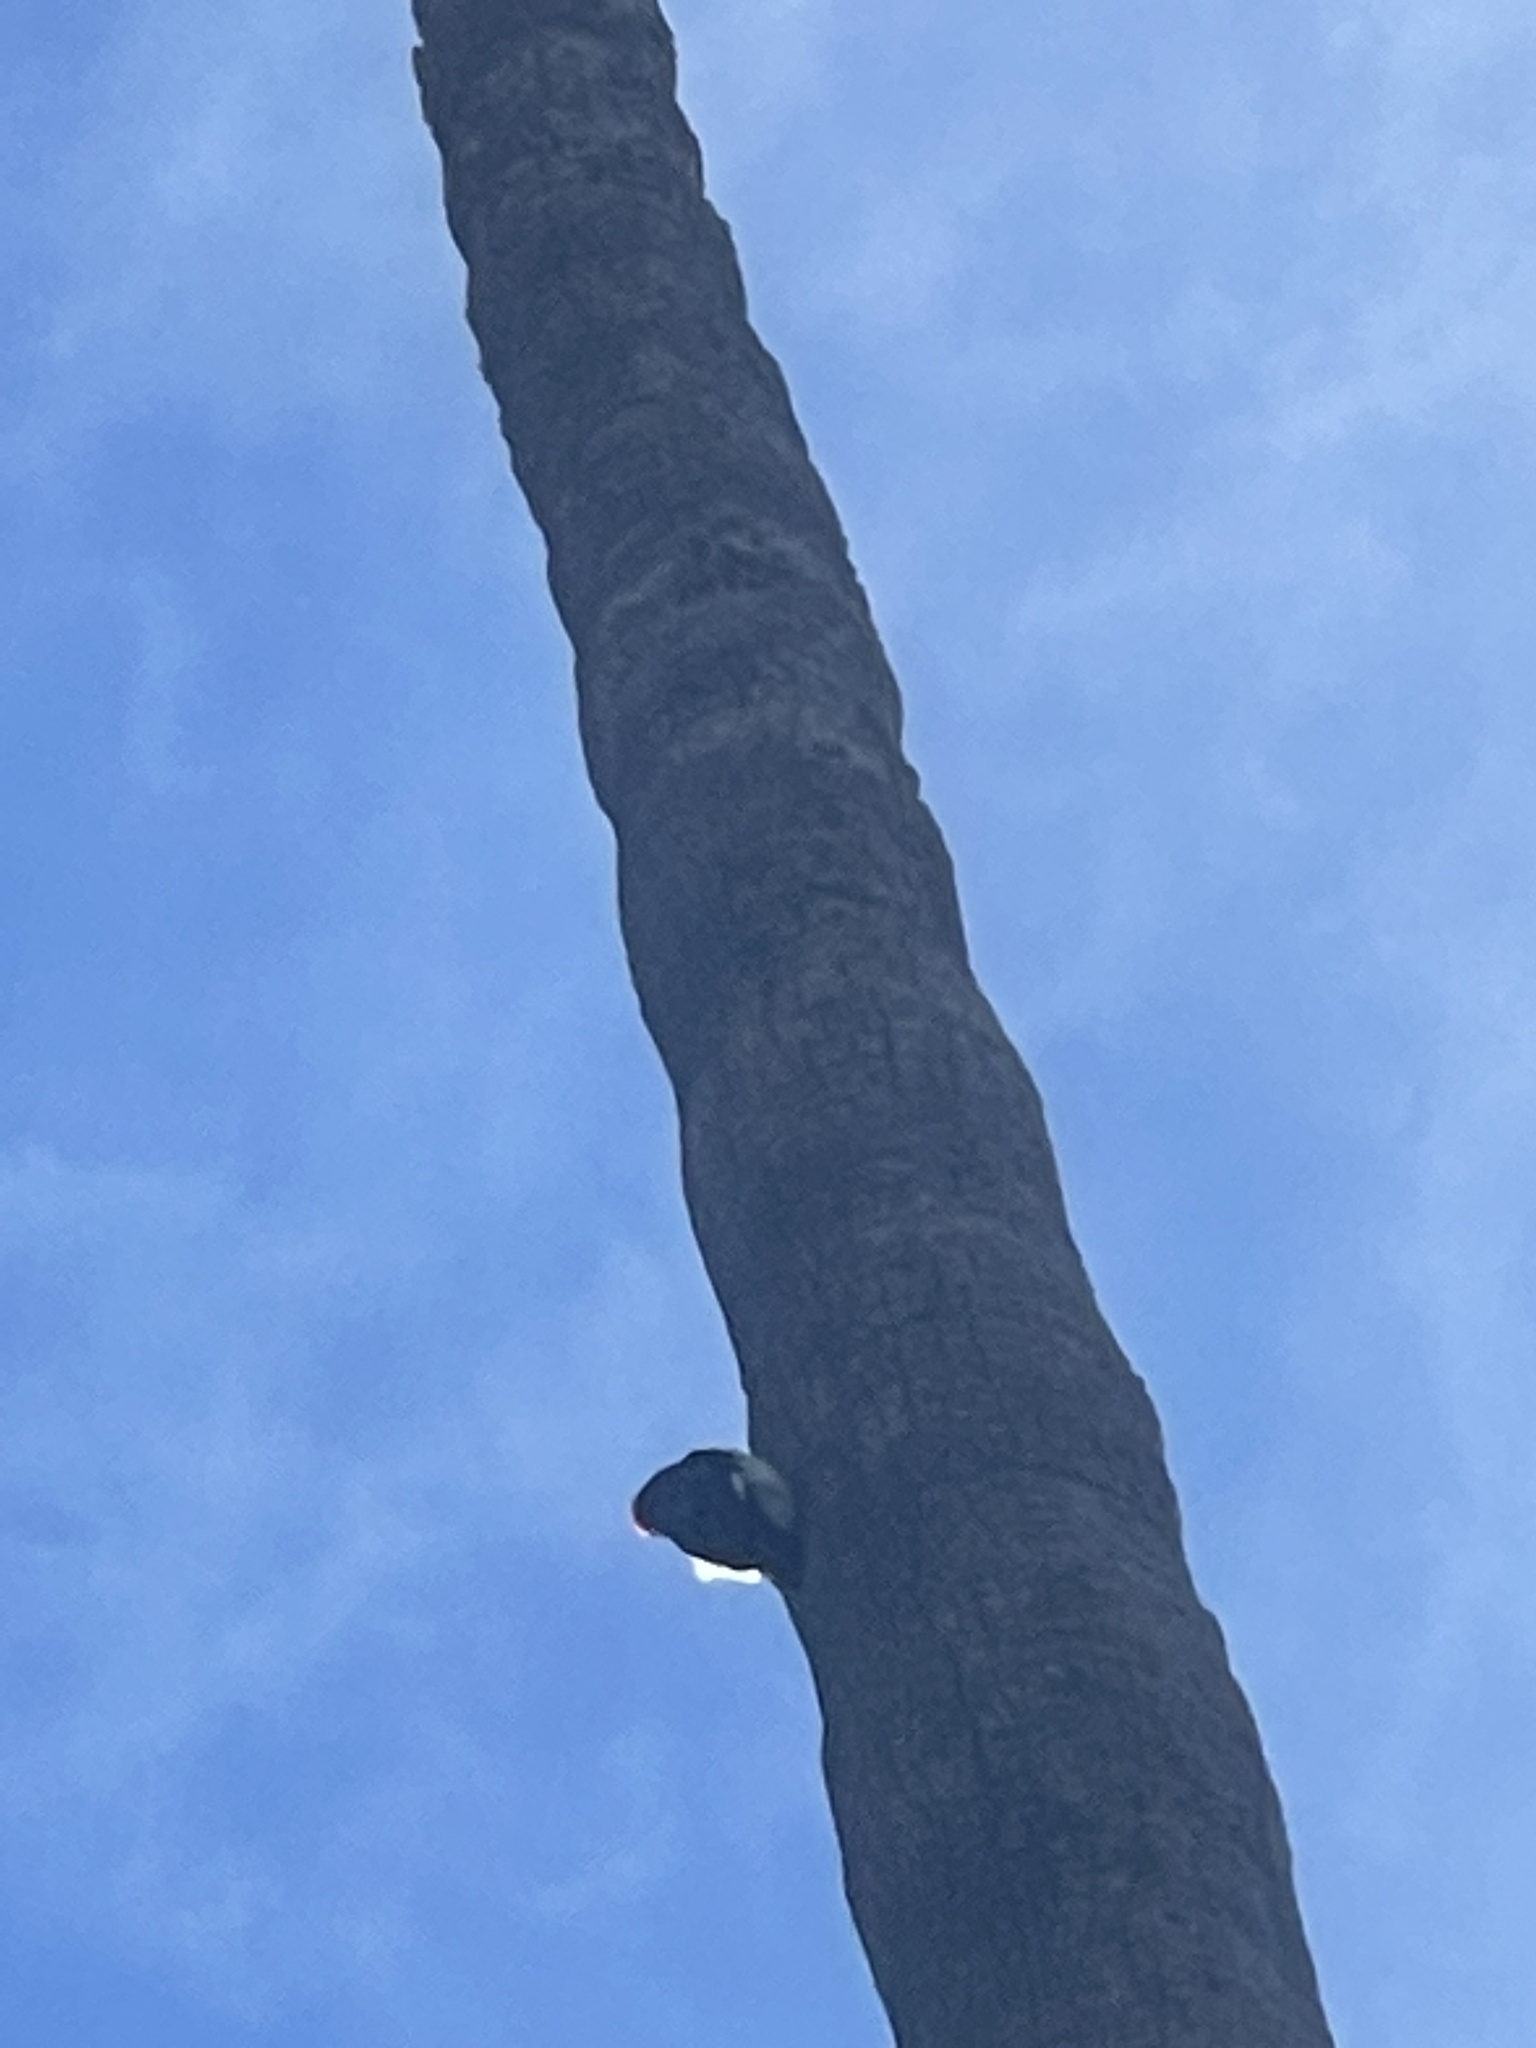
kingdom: Animalia
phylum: Chordata
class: Aves
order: Piciformes
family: Picidae
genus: Melanerpes
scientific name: Melanerpes formicivorus
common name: Acorn woodpecker
